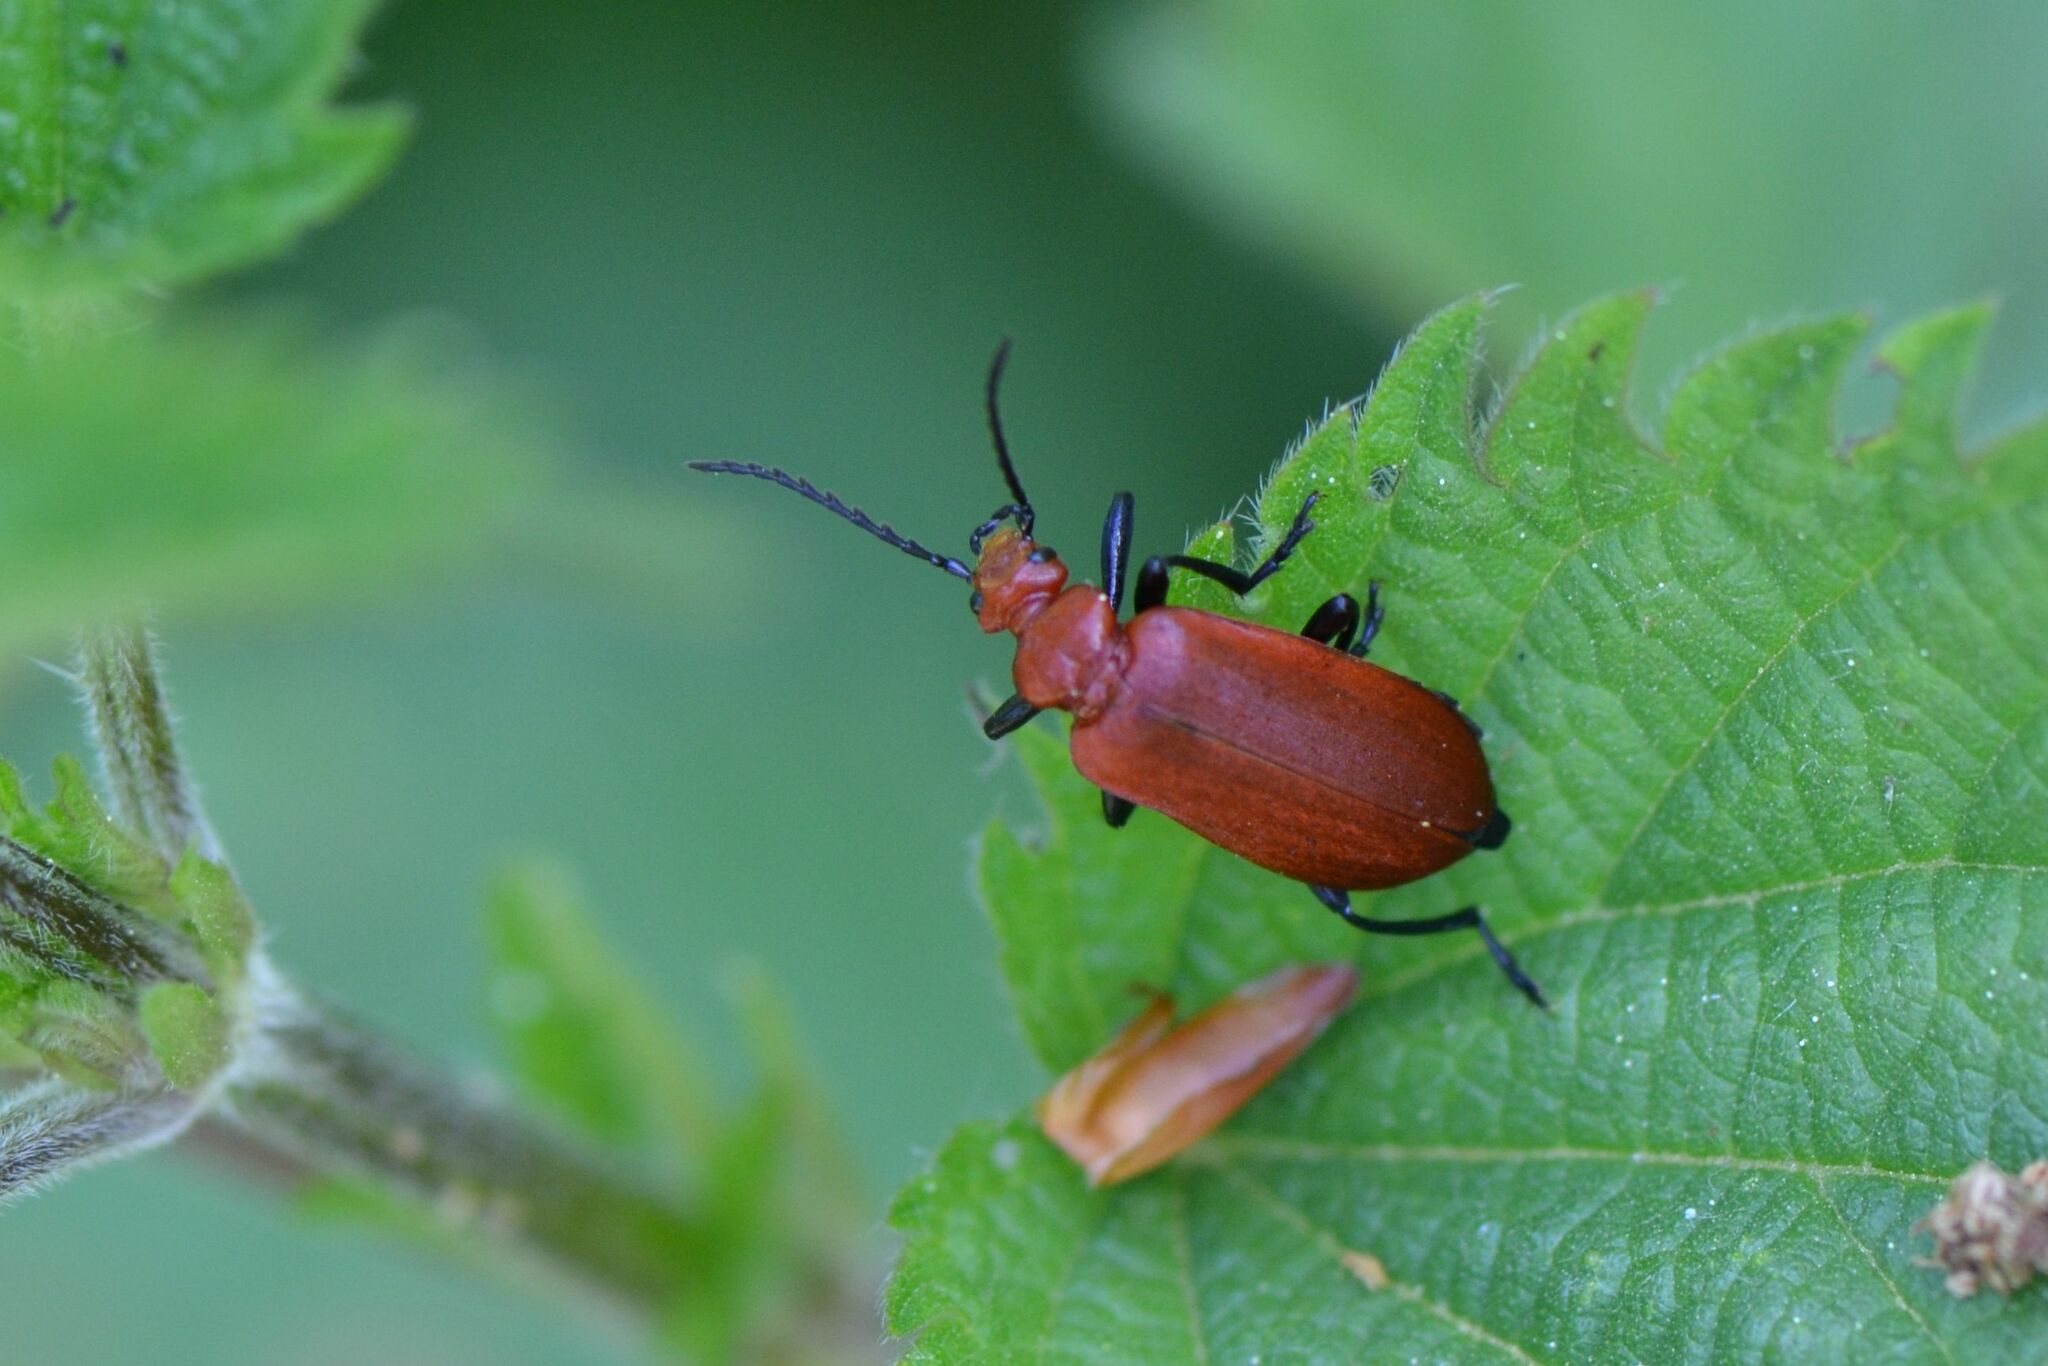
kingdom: Animalia
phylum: Arthropoda
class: Insecta
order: Coleoptera
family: Pyrochroidae
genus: Pyrochroa
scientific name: Pyrochroa serraticornis
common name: Red-headed cardinal beetle
